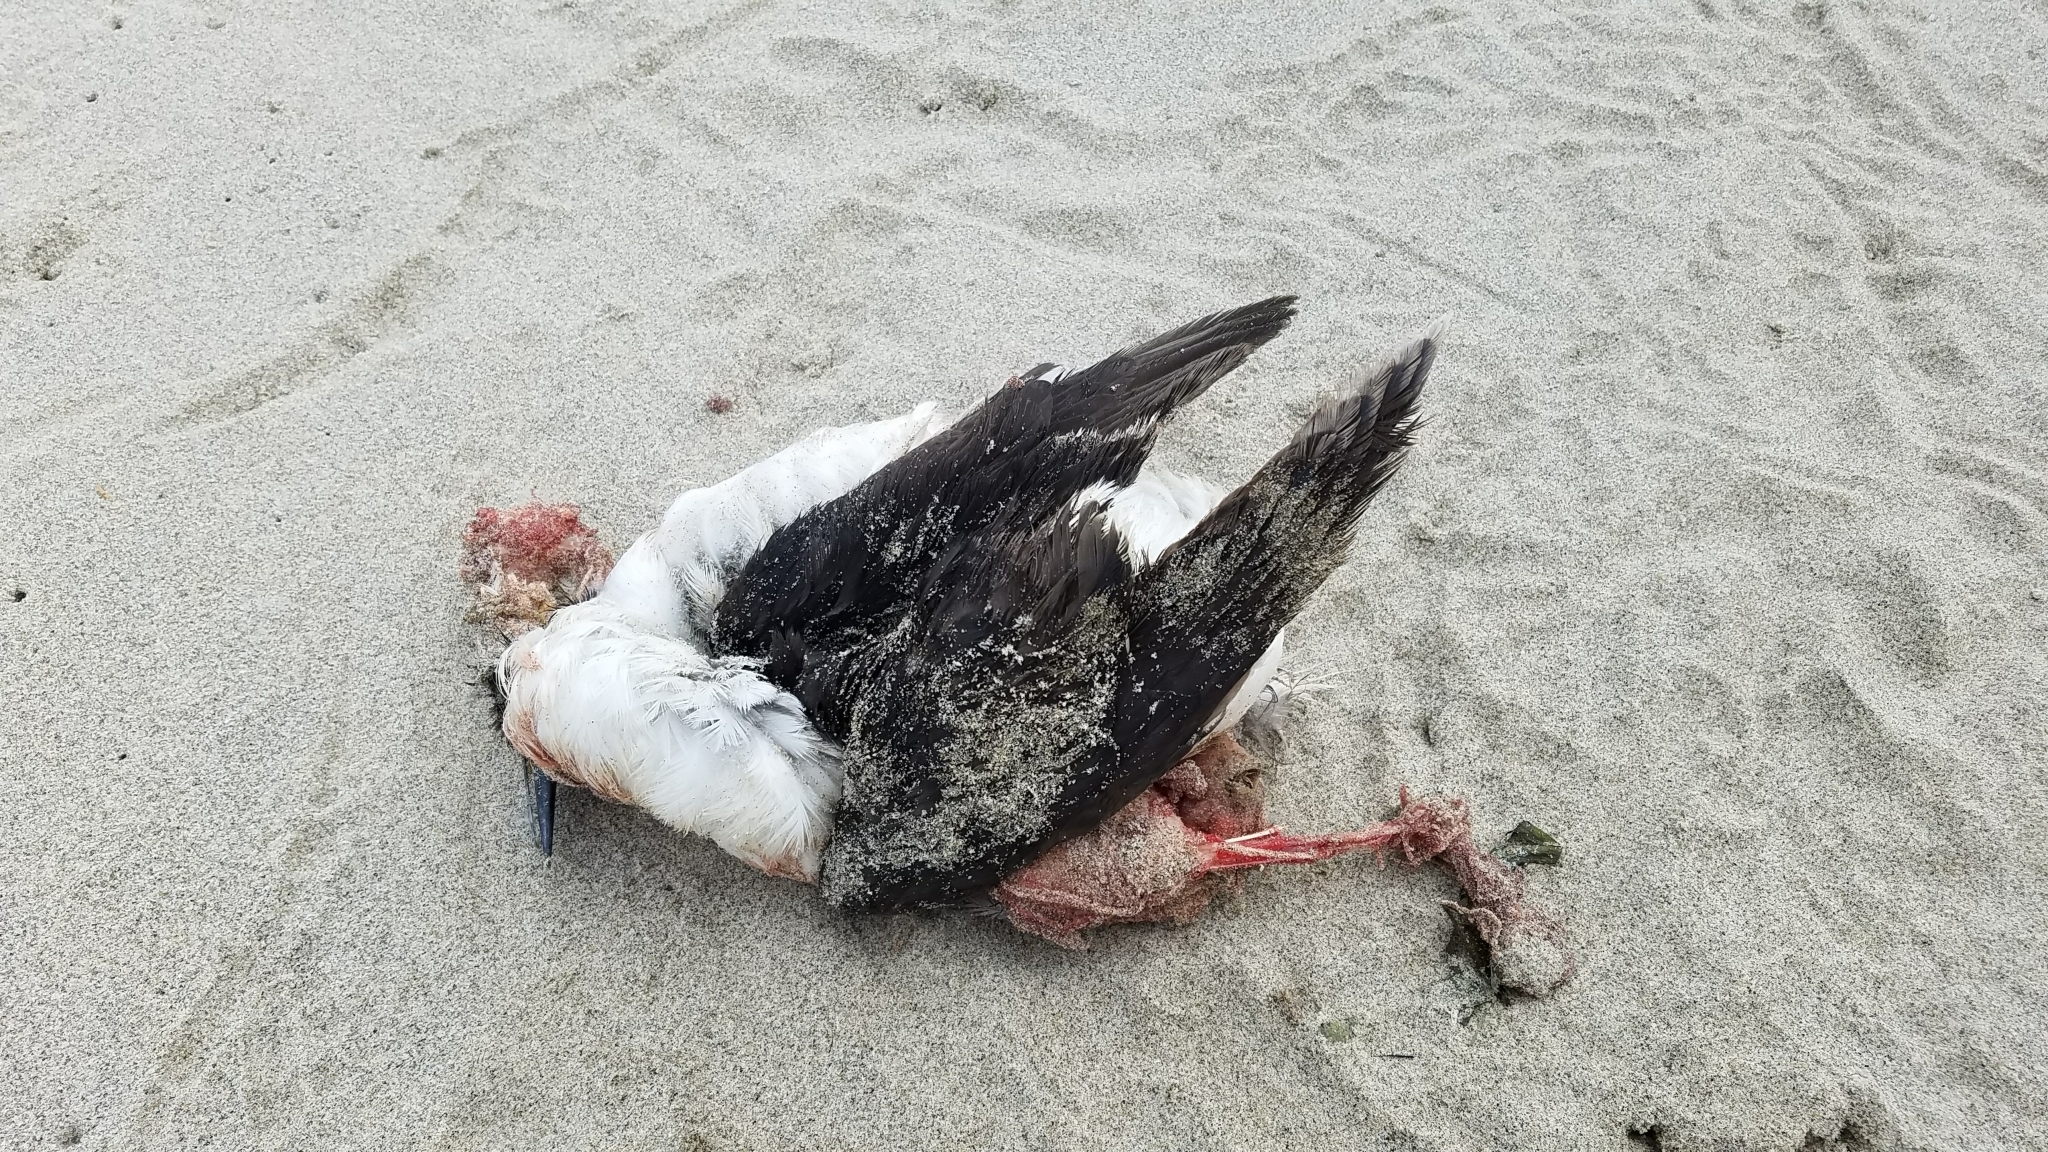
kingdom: Animalia
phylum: Chordata
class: Aves
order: Charadriiformes
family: Alcidae
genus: Uria
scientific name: Uria aalge
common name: Common murre
